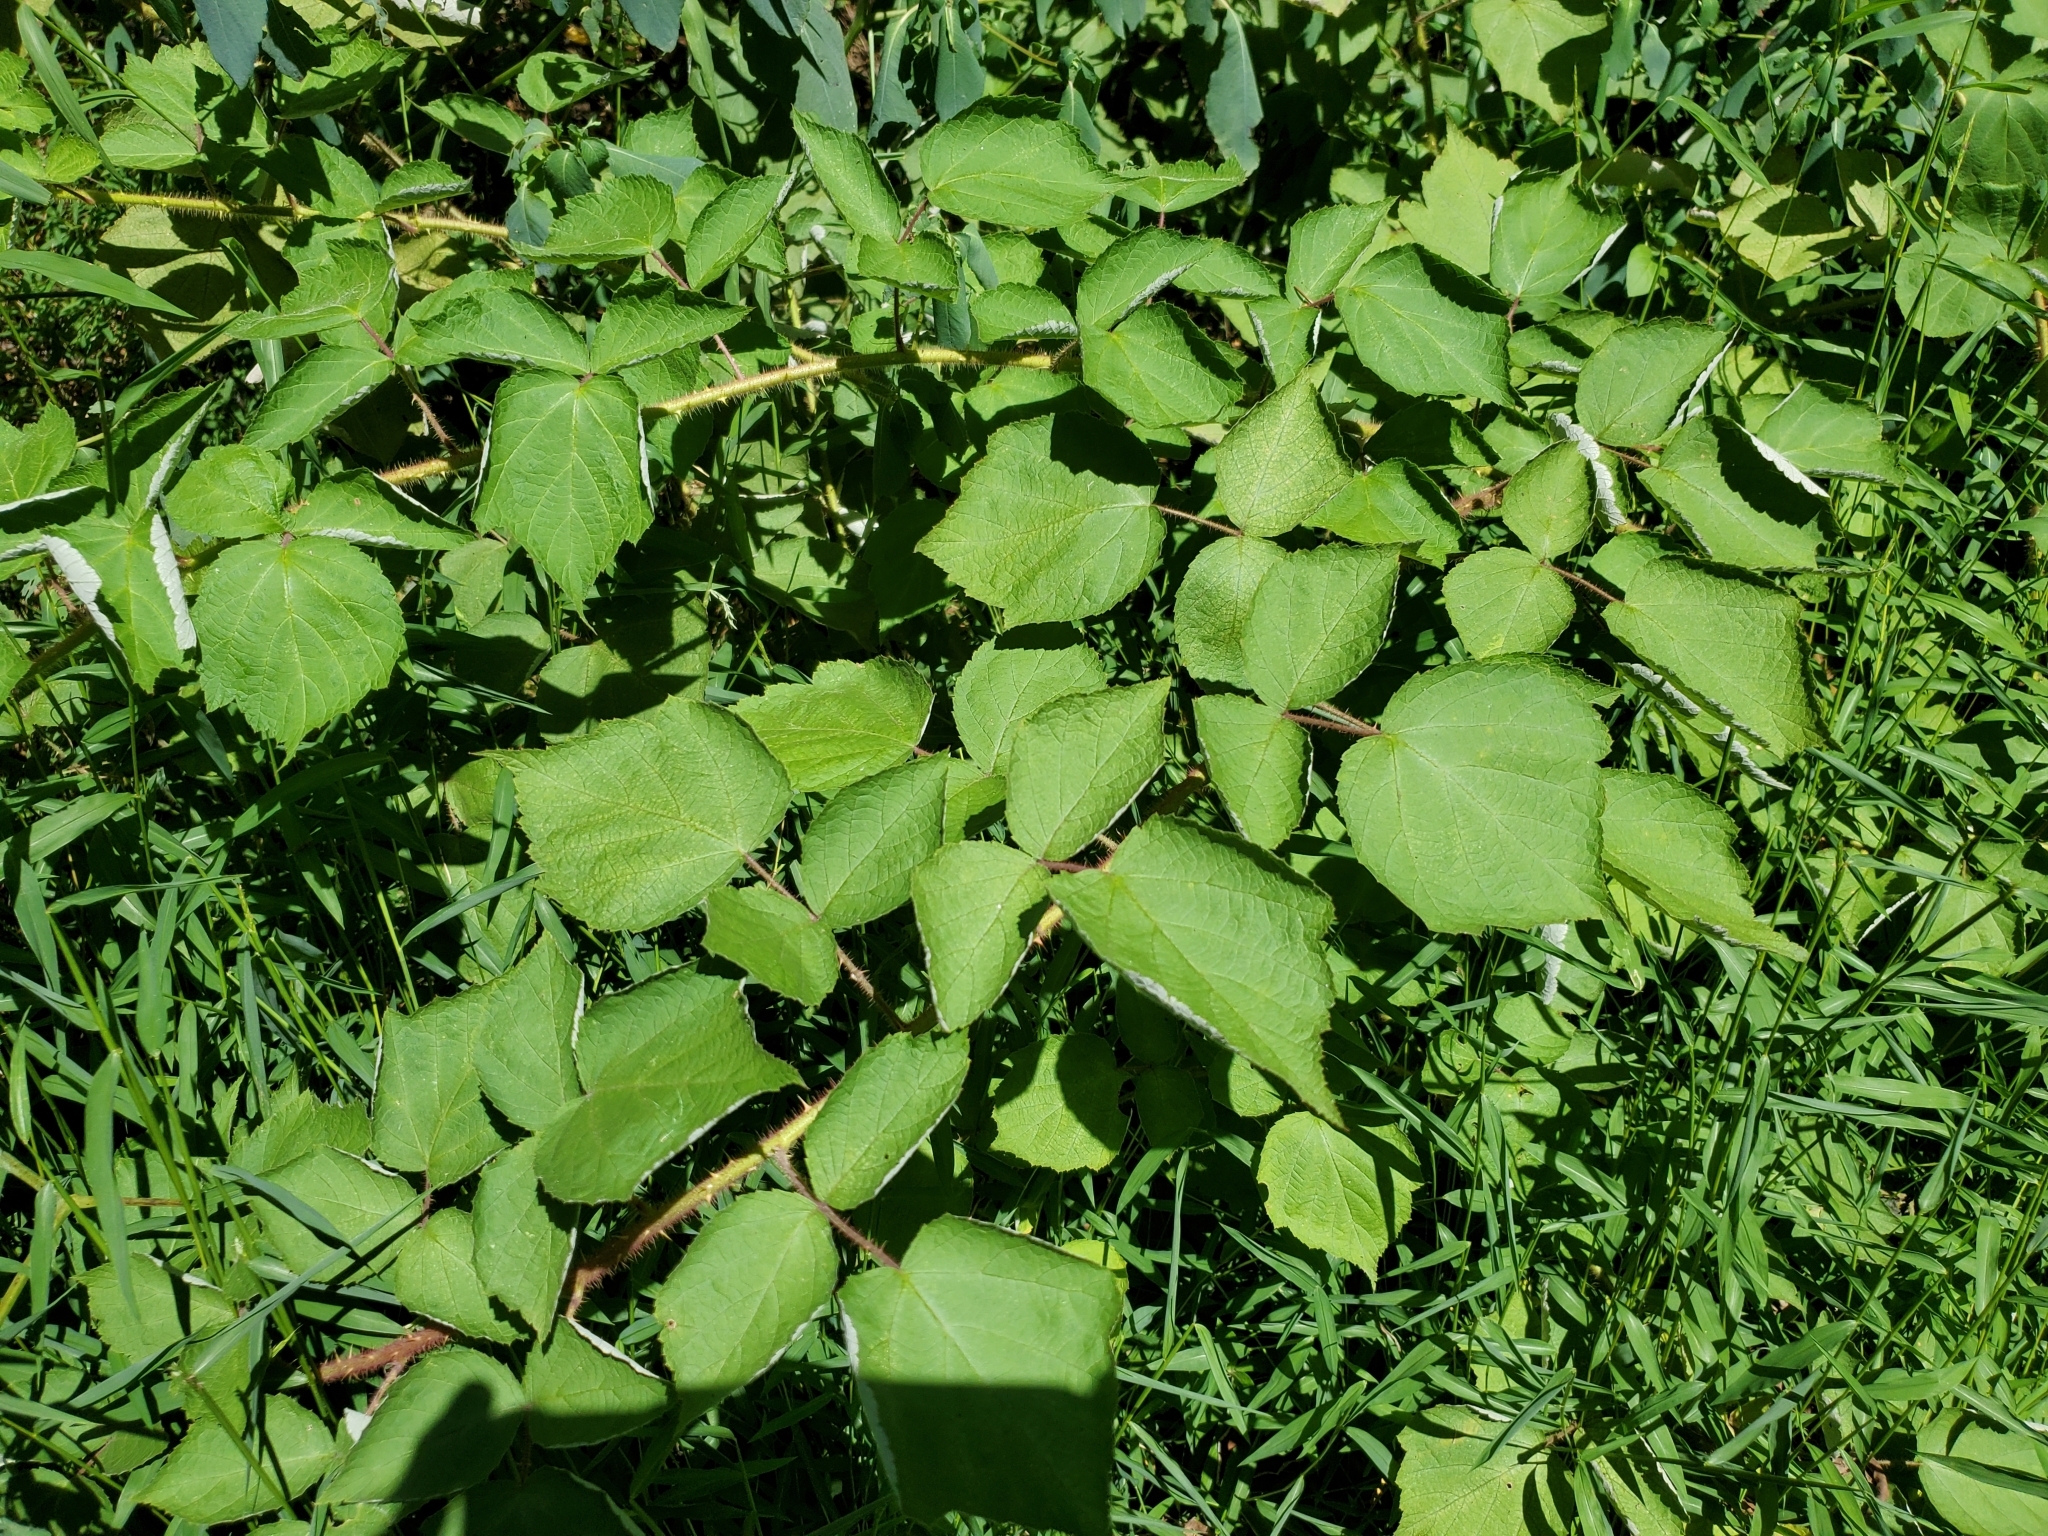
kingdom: Plantae
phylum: Tracheophyta
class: Magnoliopsida
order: Rosales
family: Rosaceae
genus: Rubus
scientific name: Rubus phoenicolasius
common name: Japanese wineberry
